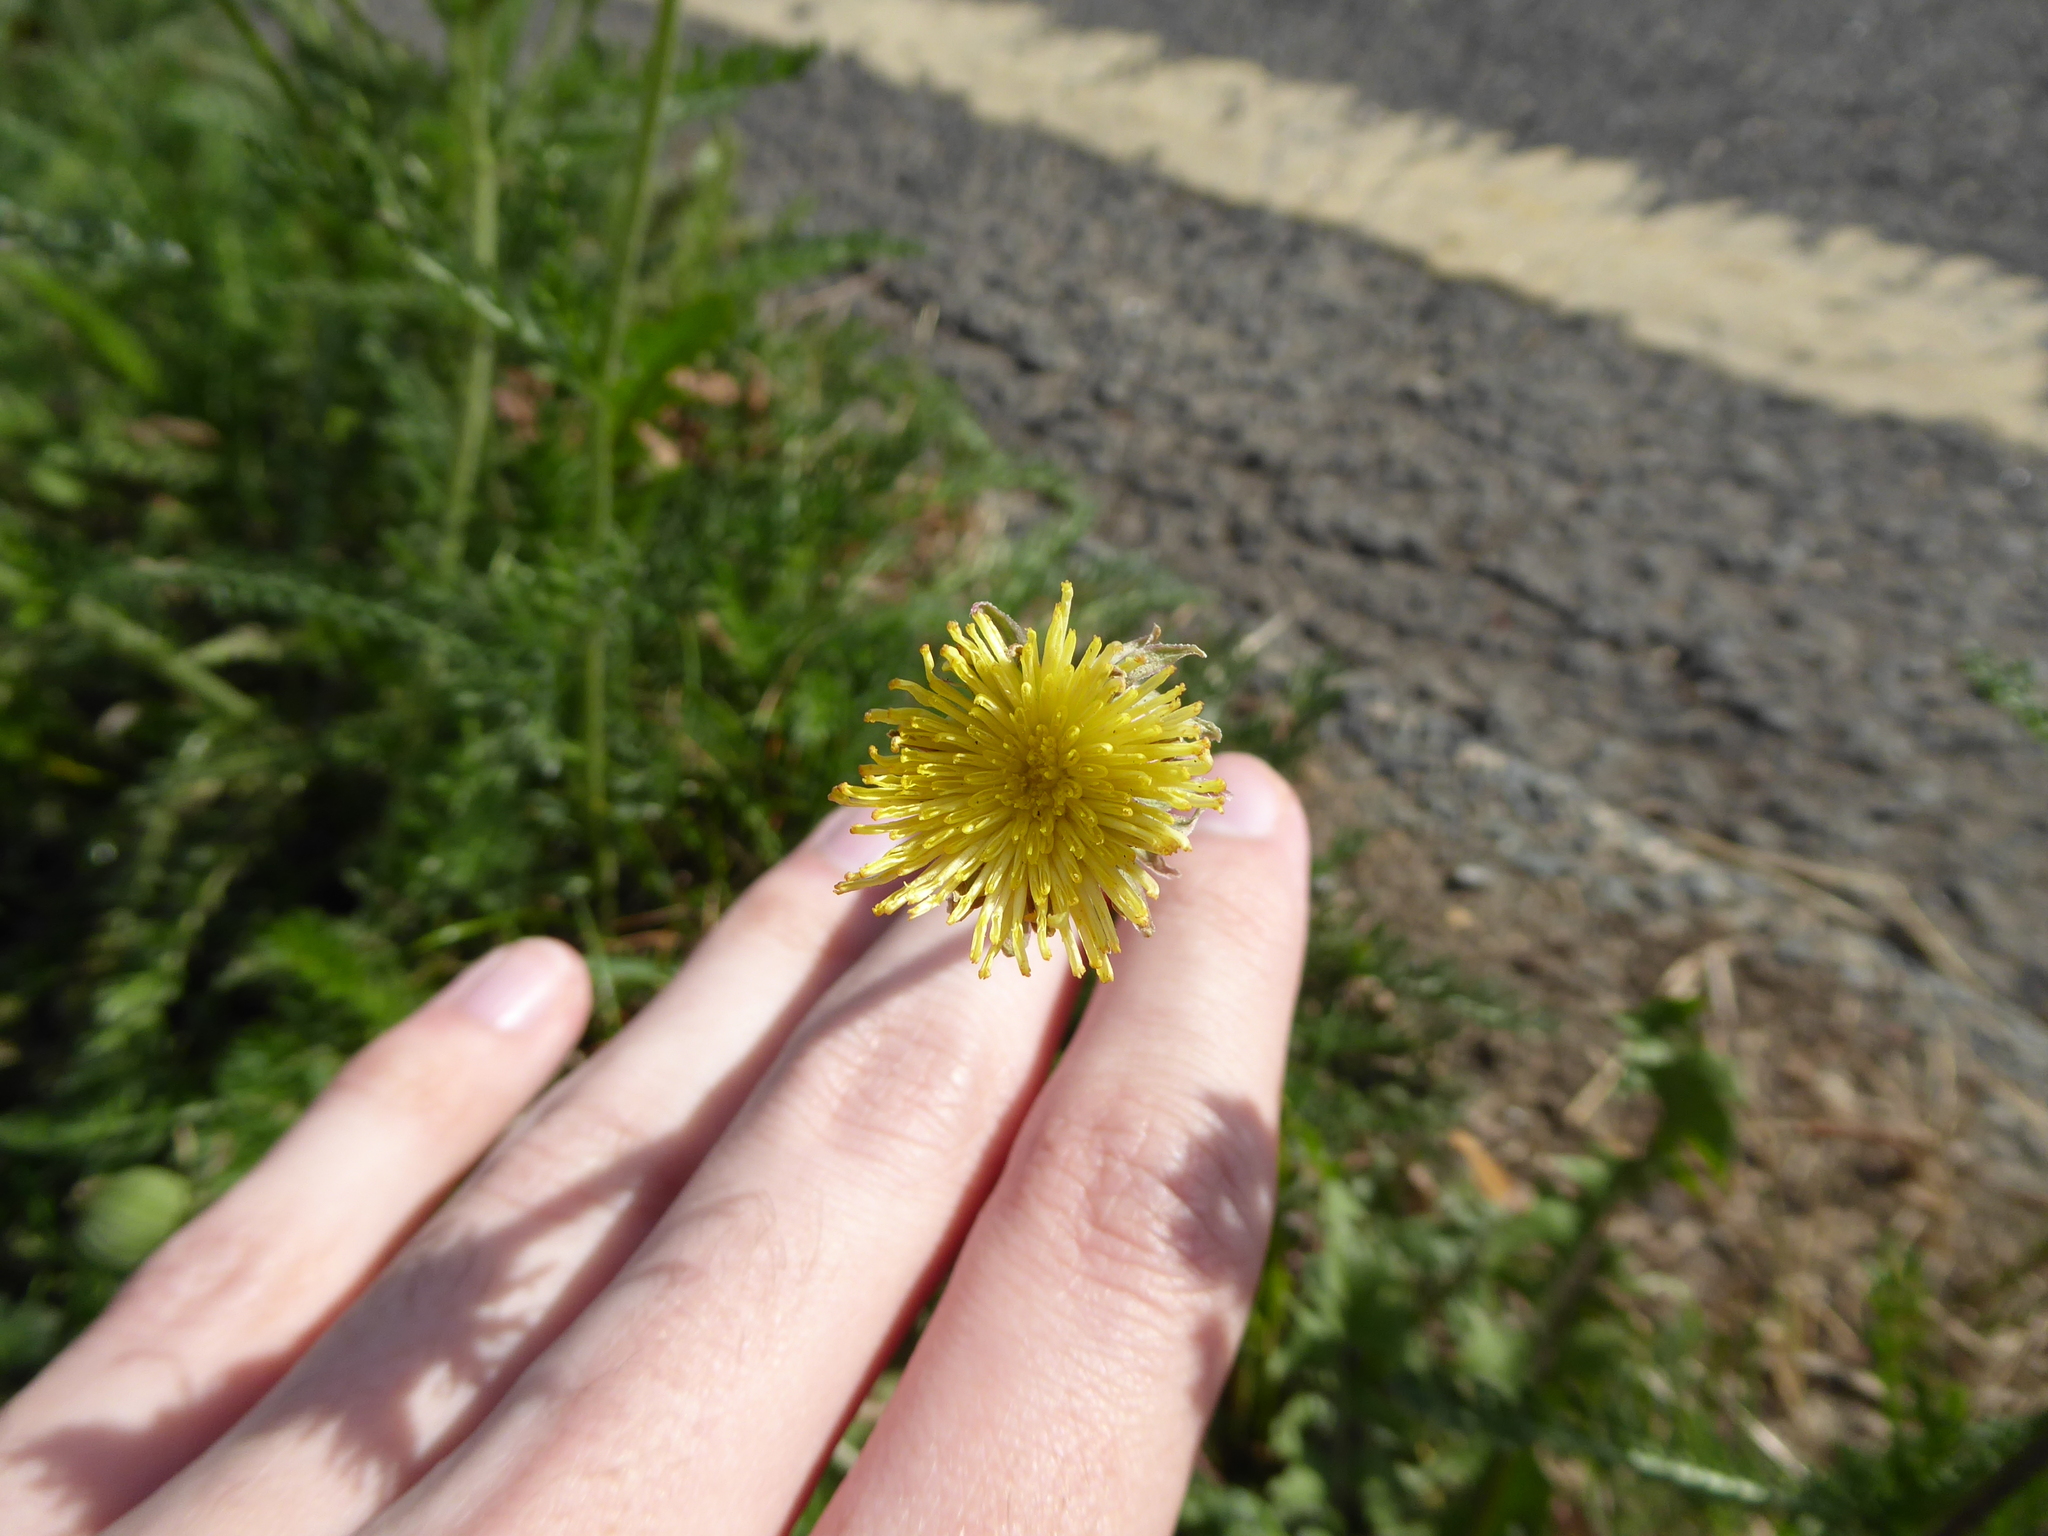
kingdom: Plantae
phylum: Tracheophyta
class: Magnoliopsida
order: Asterales
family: Asteraceae
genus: Taraxacum
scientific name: Taraxacum
